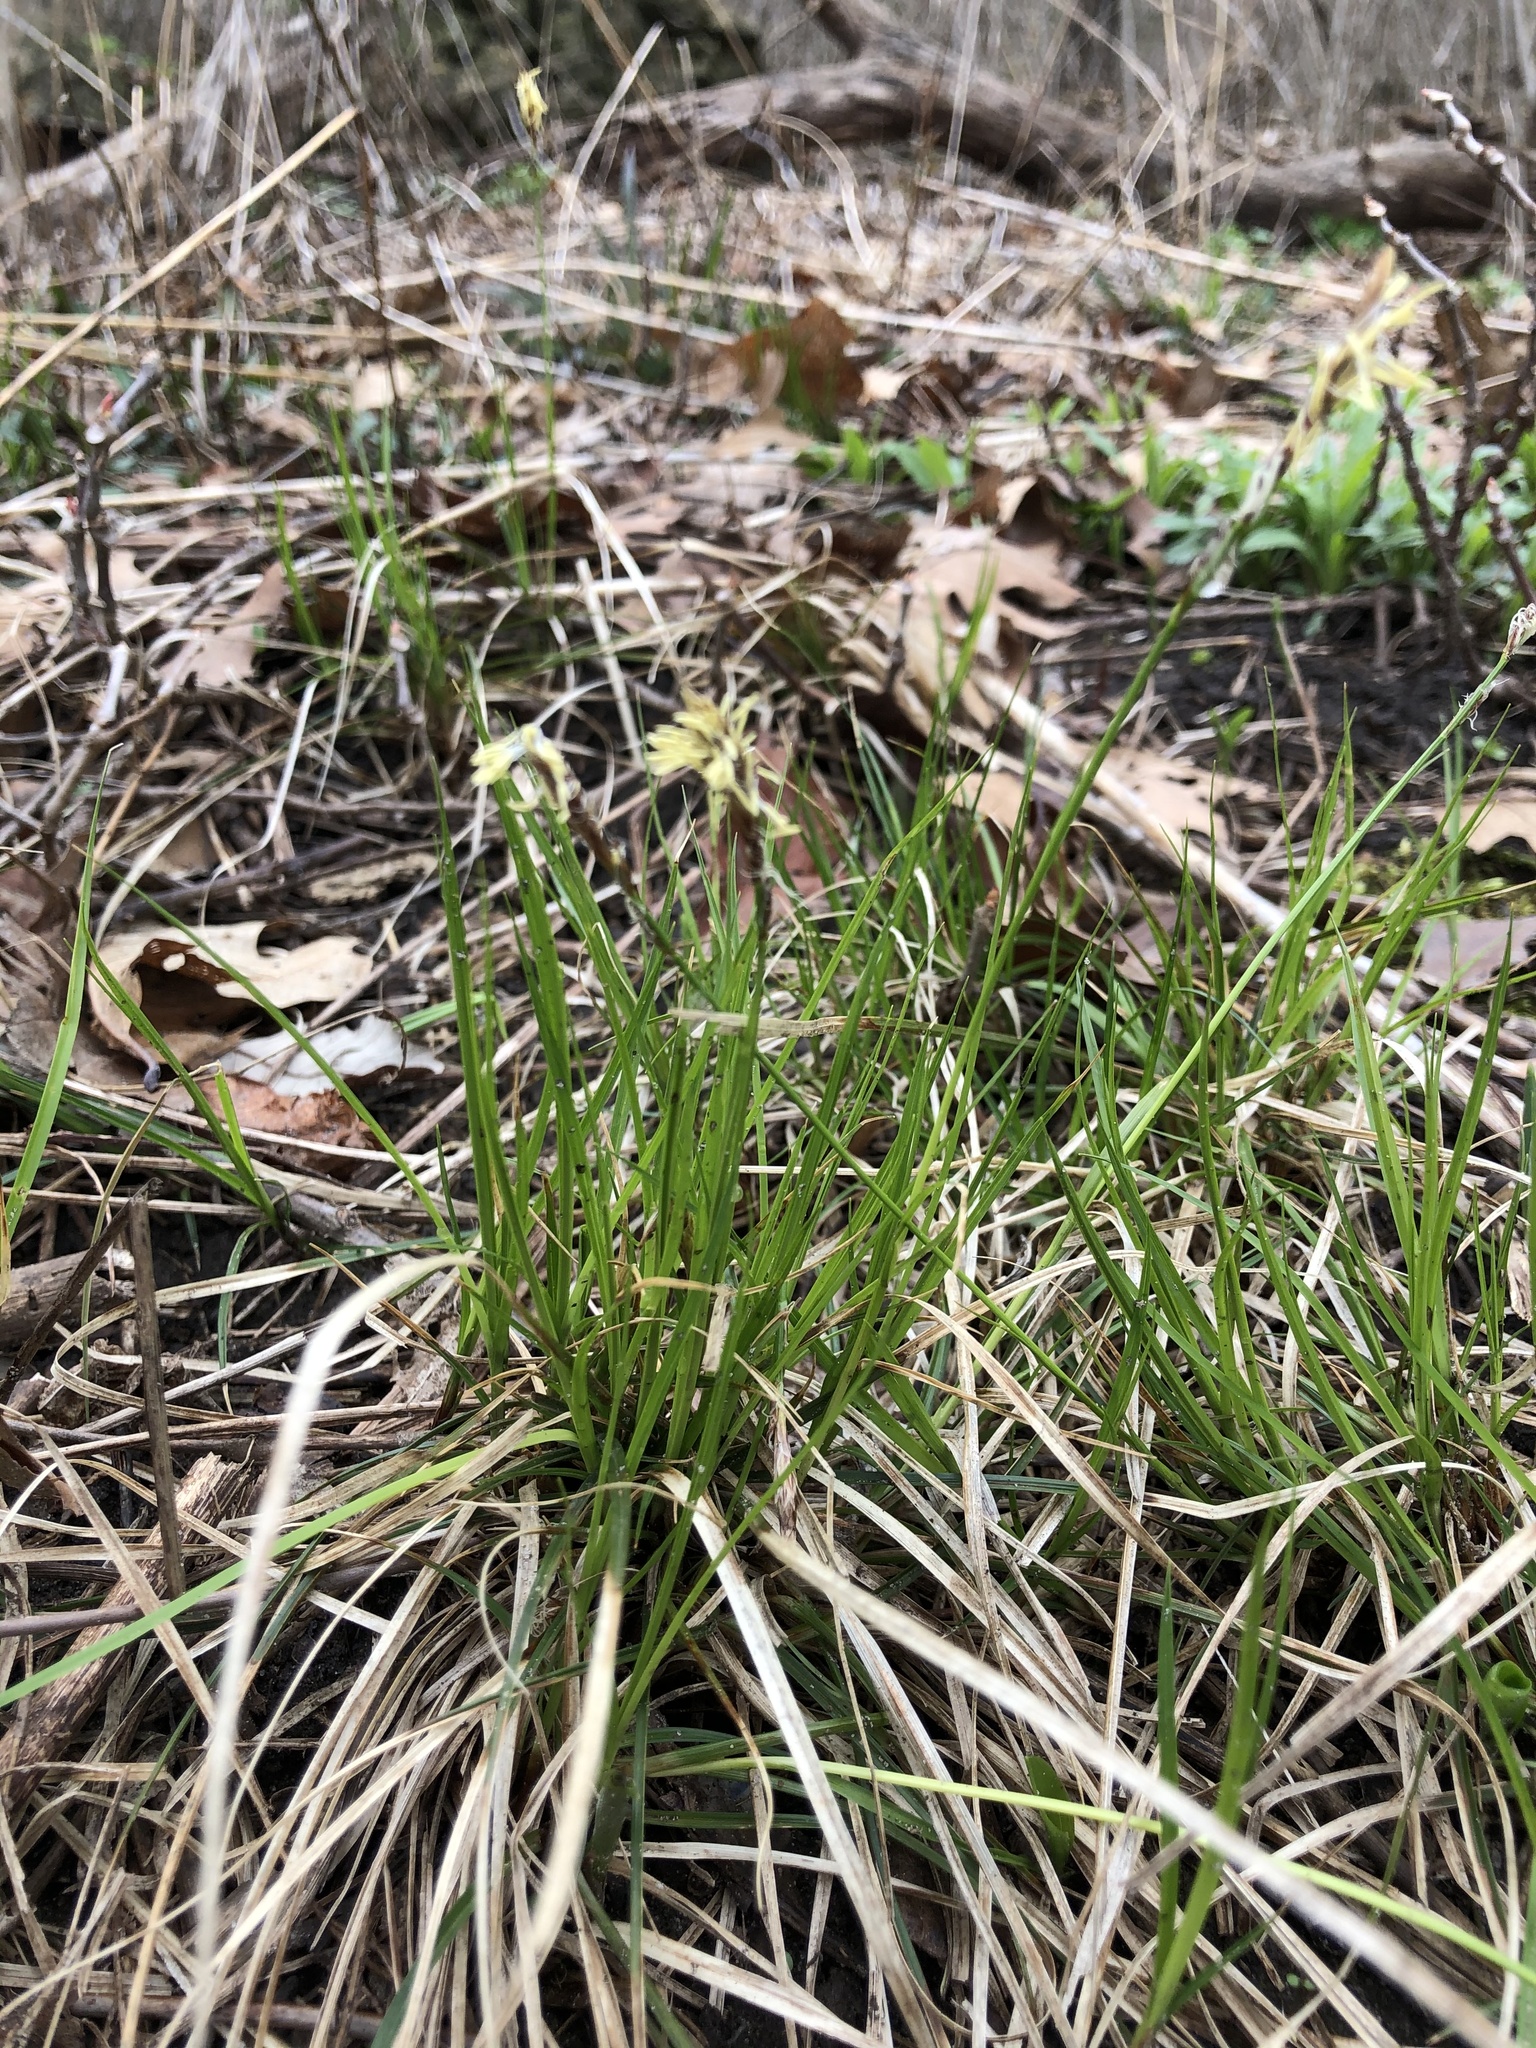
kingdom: Plantae
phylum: Tracheophyta
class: Liliopsida
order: Poales
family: Cyperaceae
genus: Carex
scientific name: Carex pensylvanica
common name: Common oak sedge
